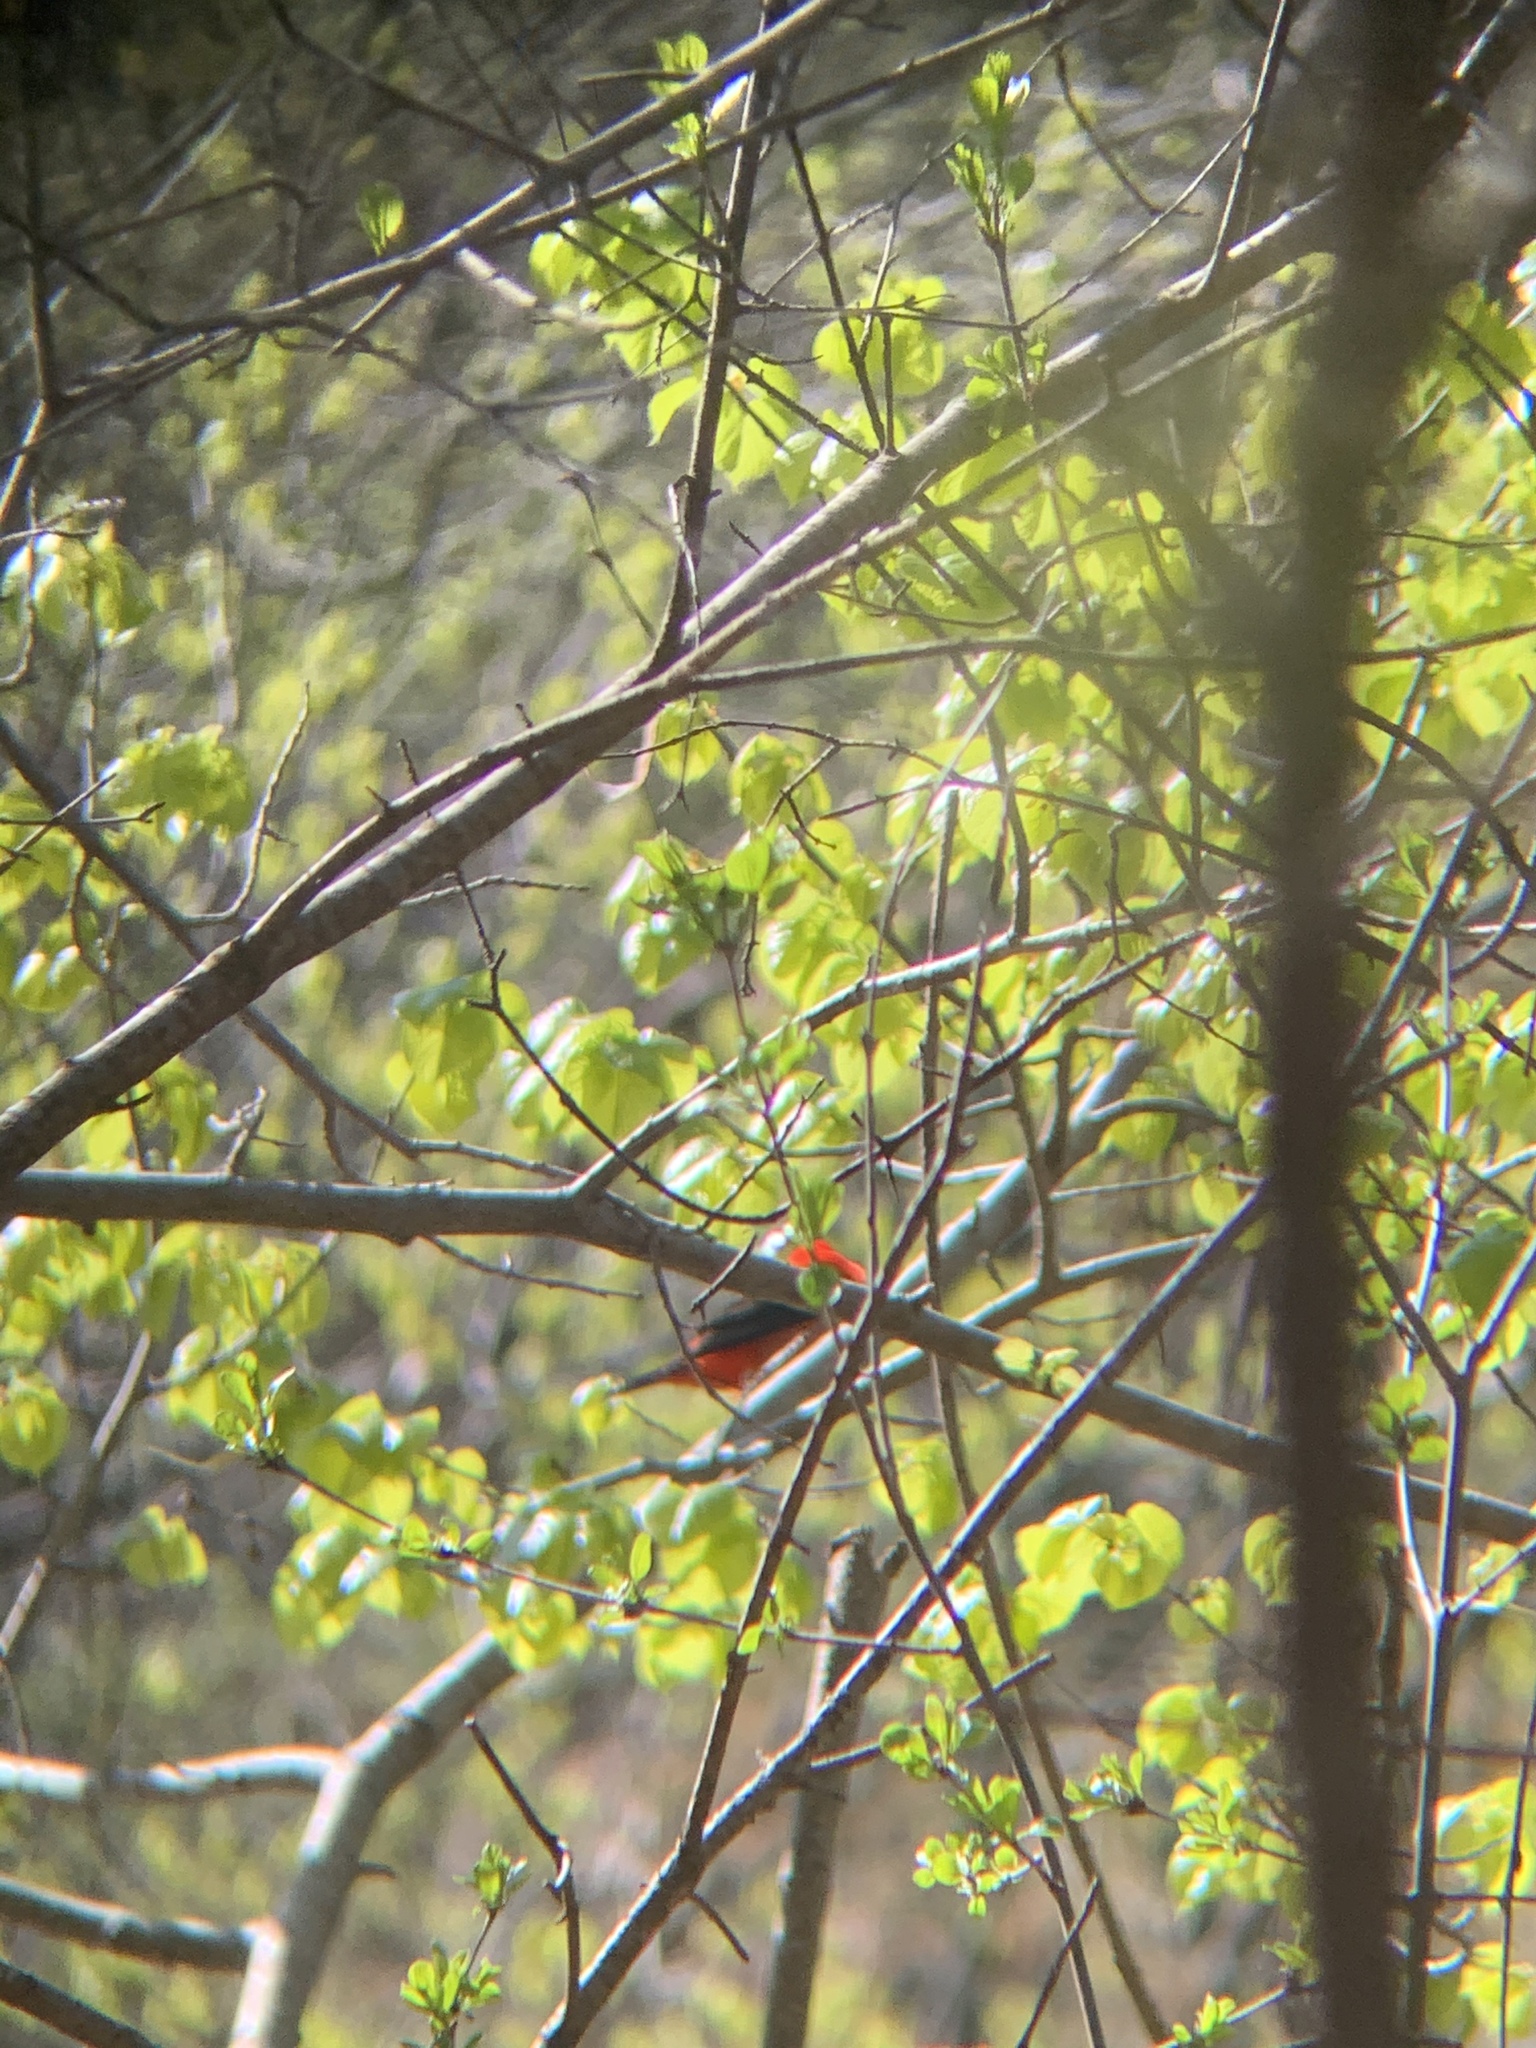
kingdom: Animalia
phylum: Chordata
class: Aves
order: Passeriformes
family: Cardinalidae
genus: Piranga
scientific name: Piranga olivacea
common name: Scarlet tanager
